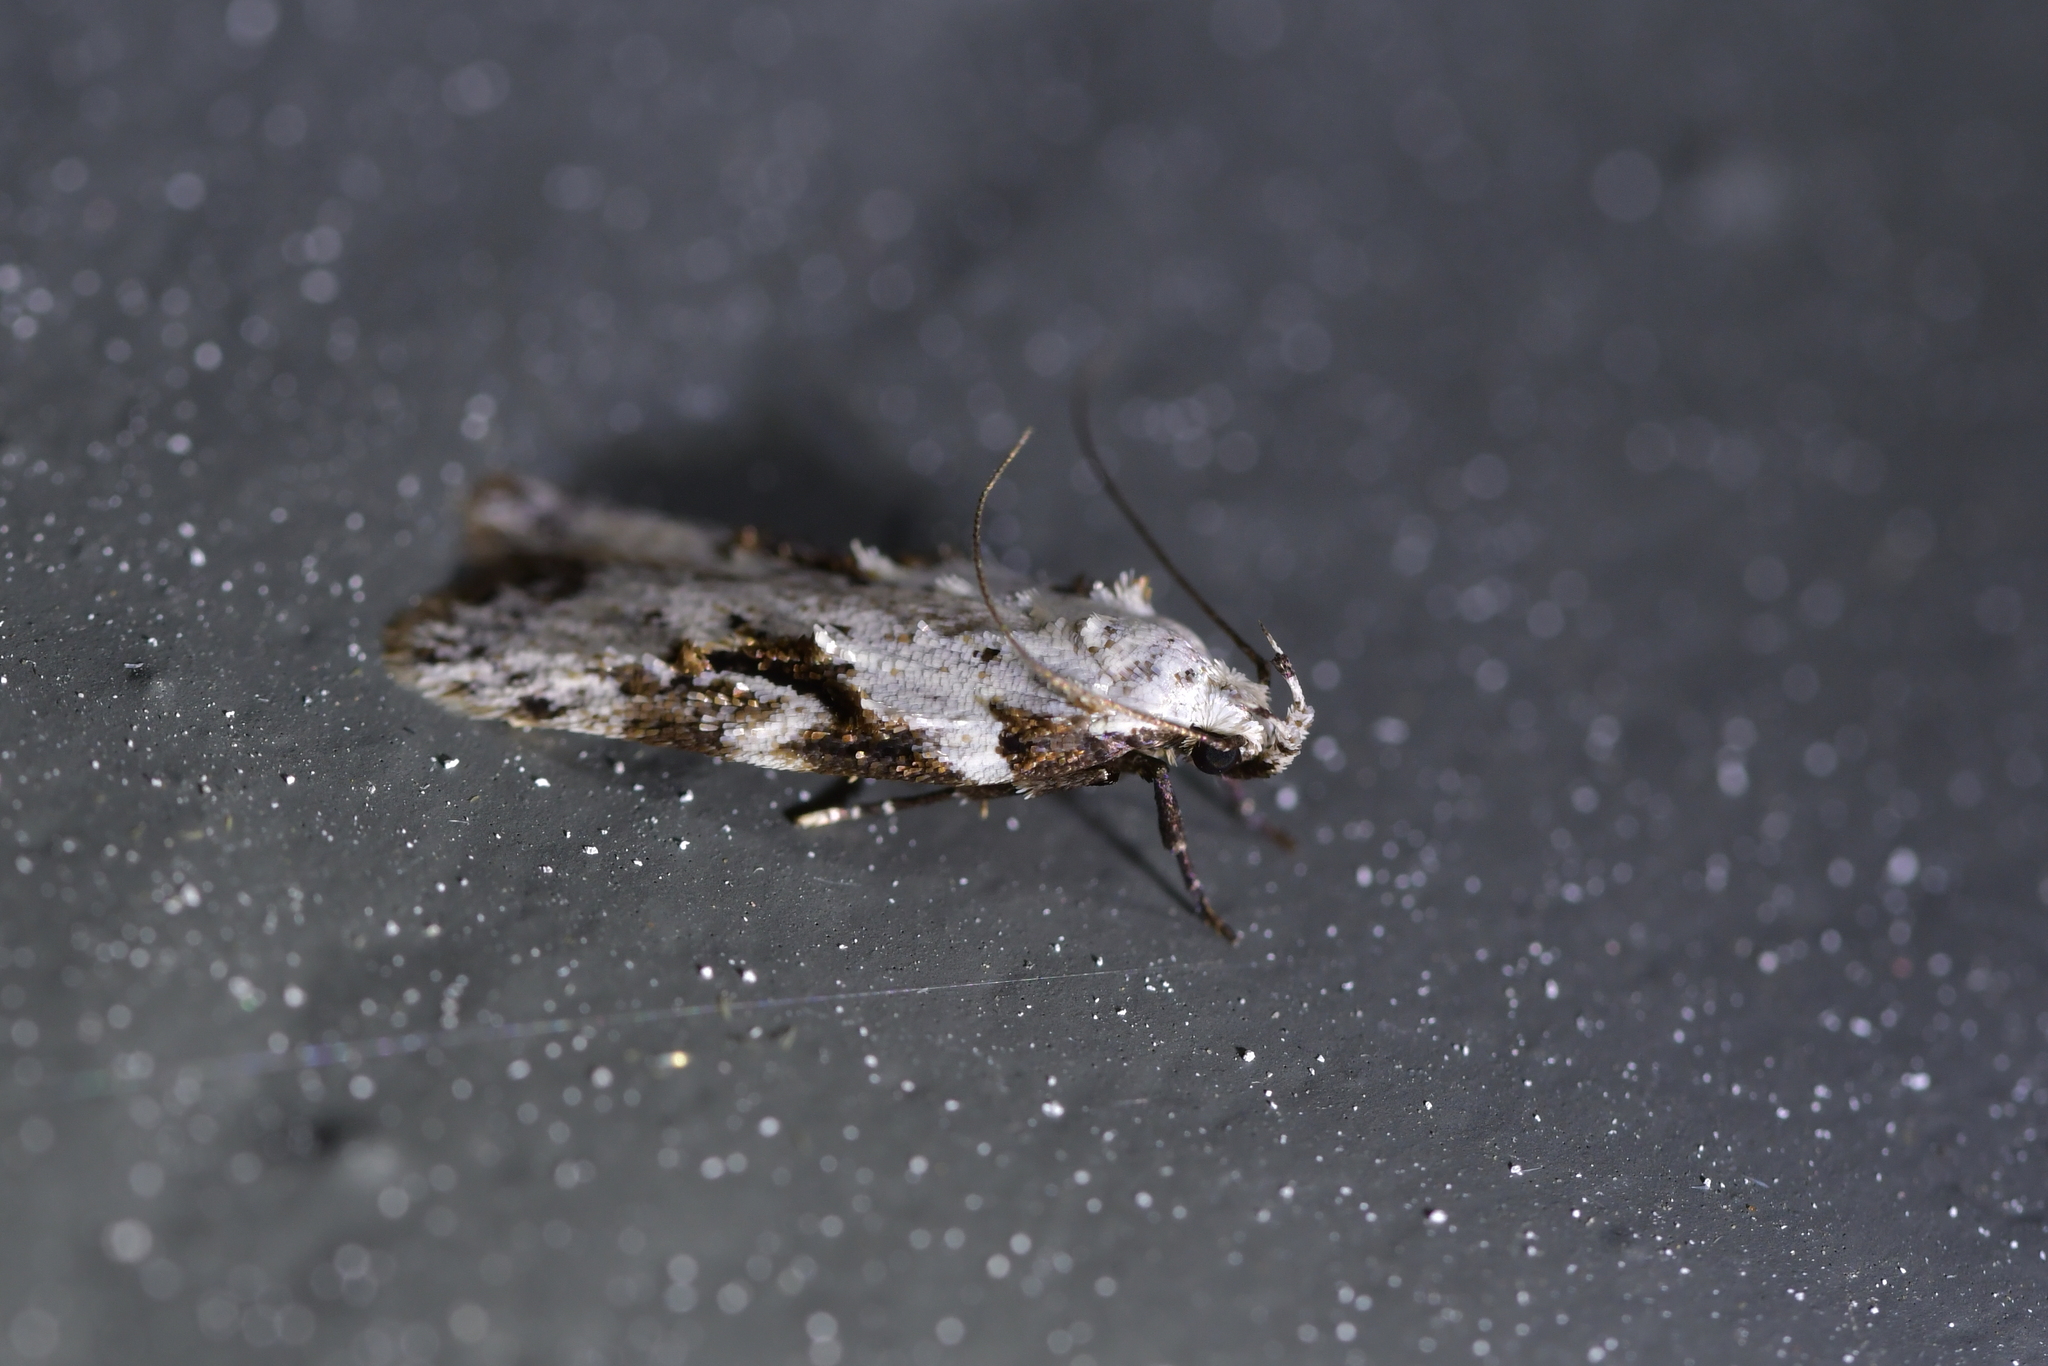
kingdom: Animalia
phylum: Arthropoda
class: Insecta
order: Lepidoptera
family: Oecophoridae
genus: Izatha
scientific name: Izatha mesoschista
